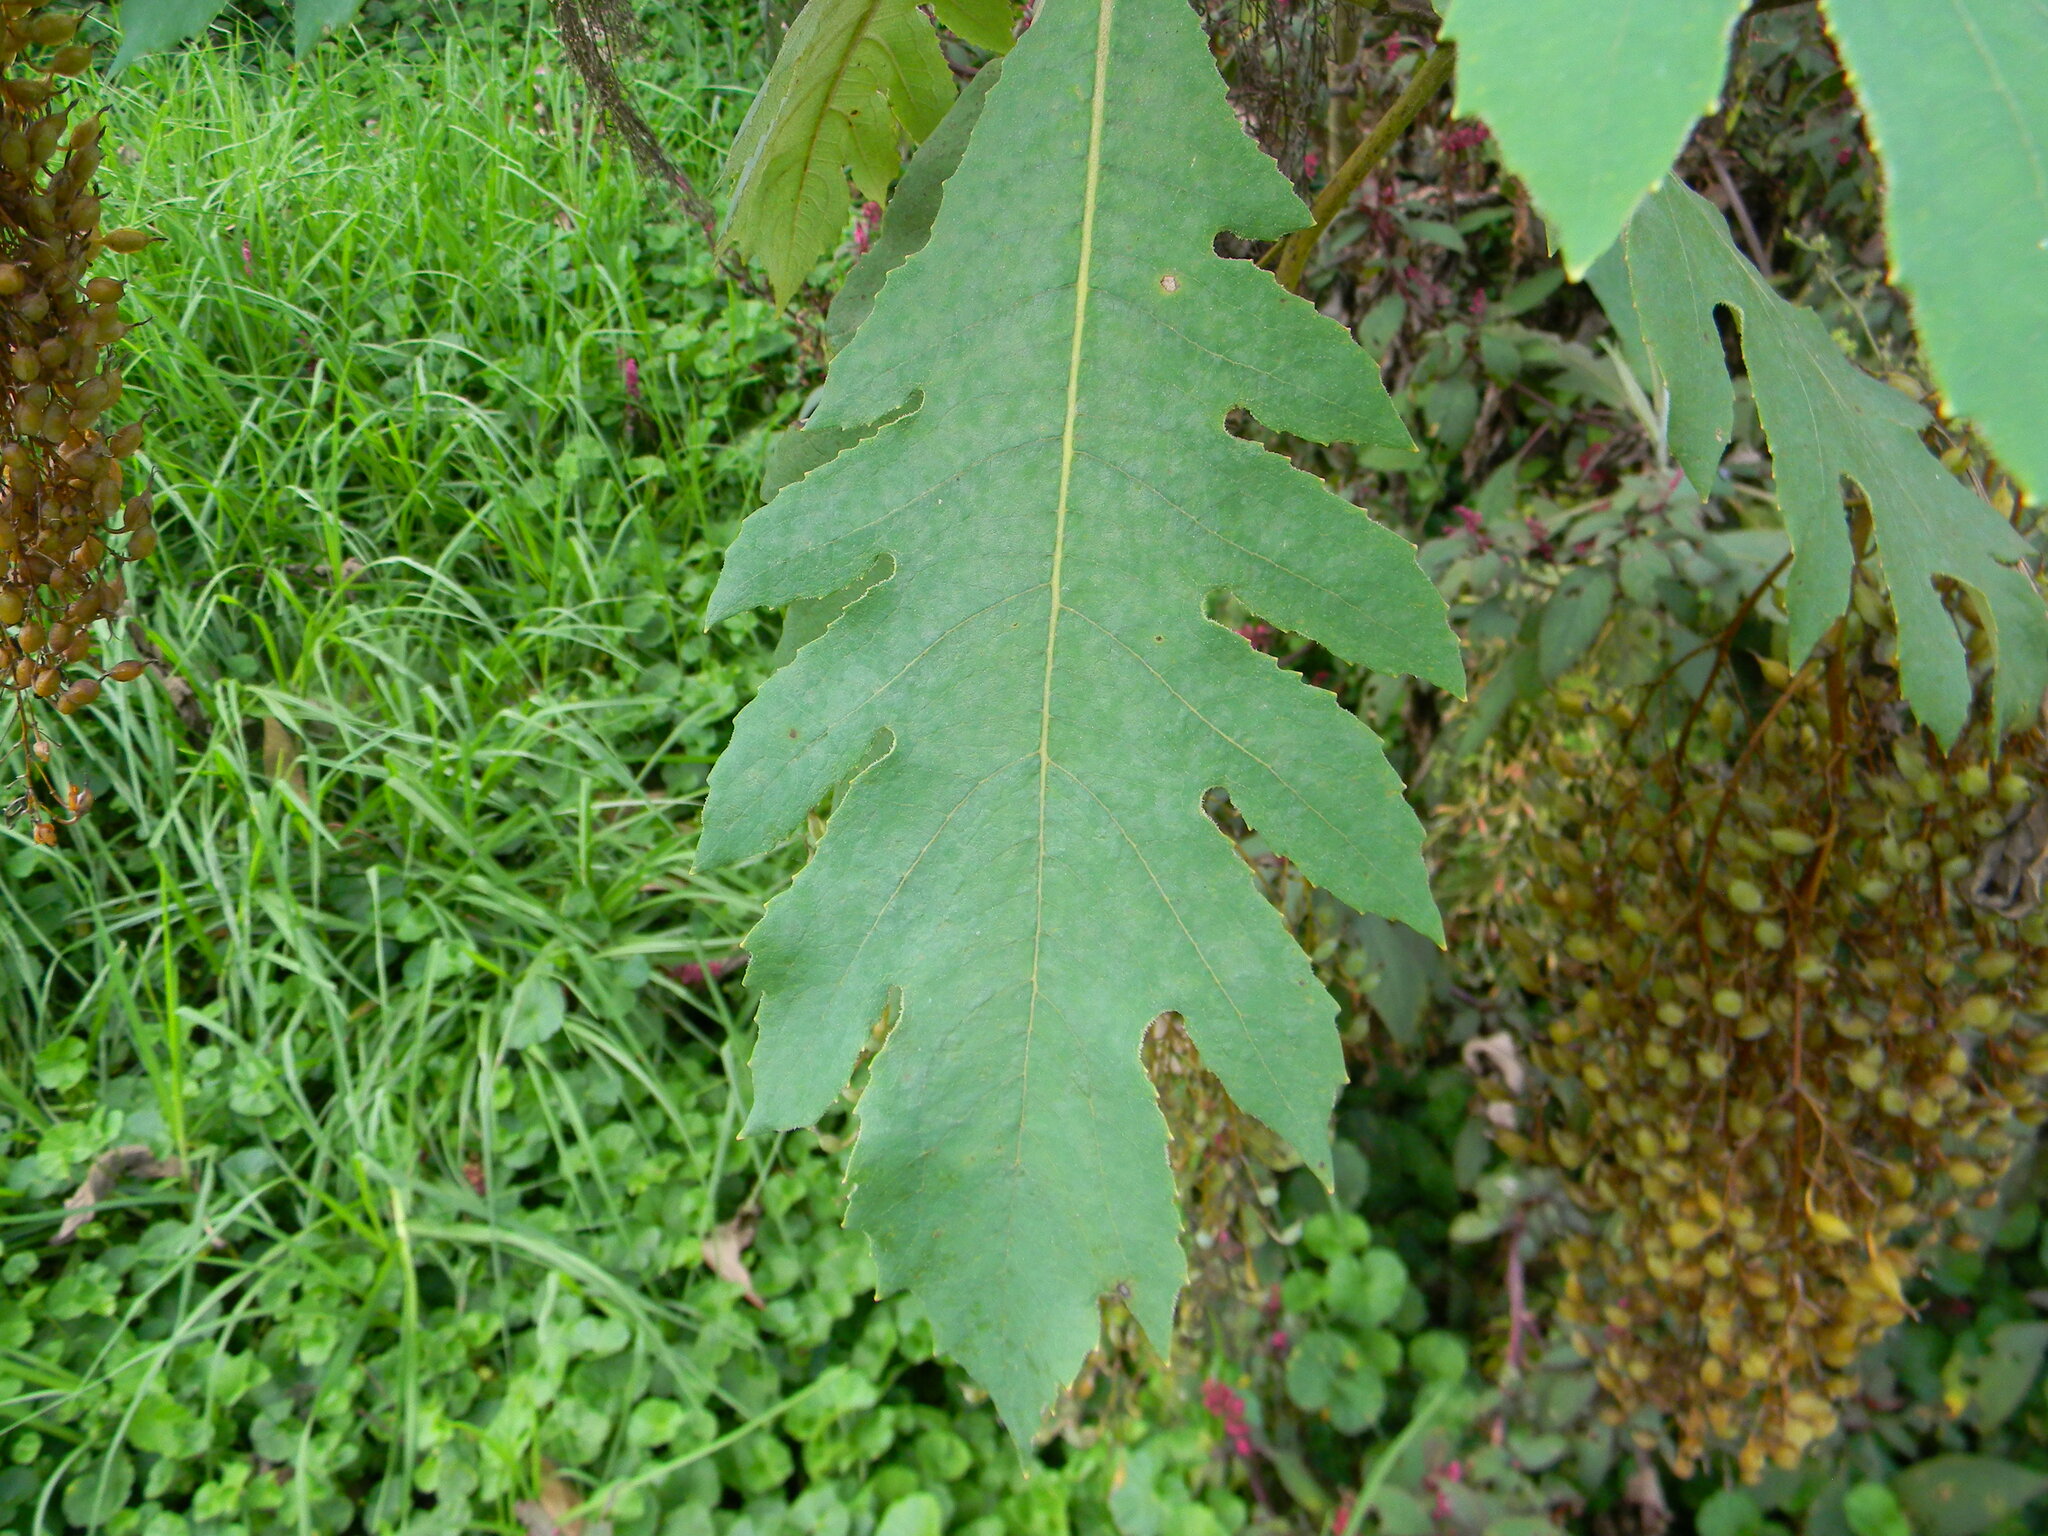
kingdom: Plantae
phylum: Tracheophyta
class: Magnoliopsida
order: Ranunculales
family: Papaveraceae
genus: Bocconia
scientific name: Bocconia frutescens
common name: Tree poppy
